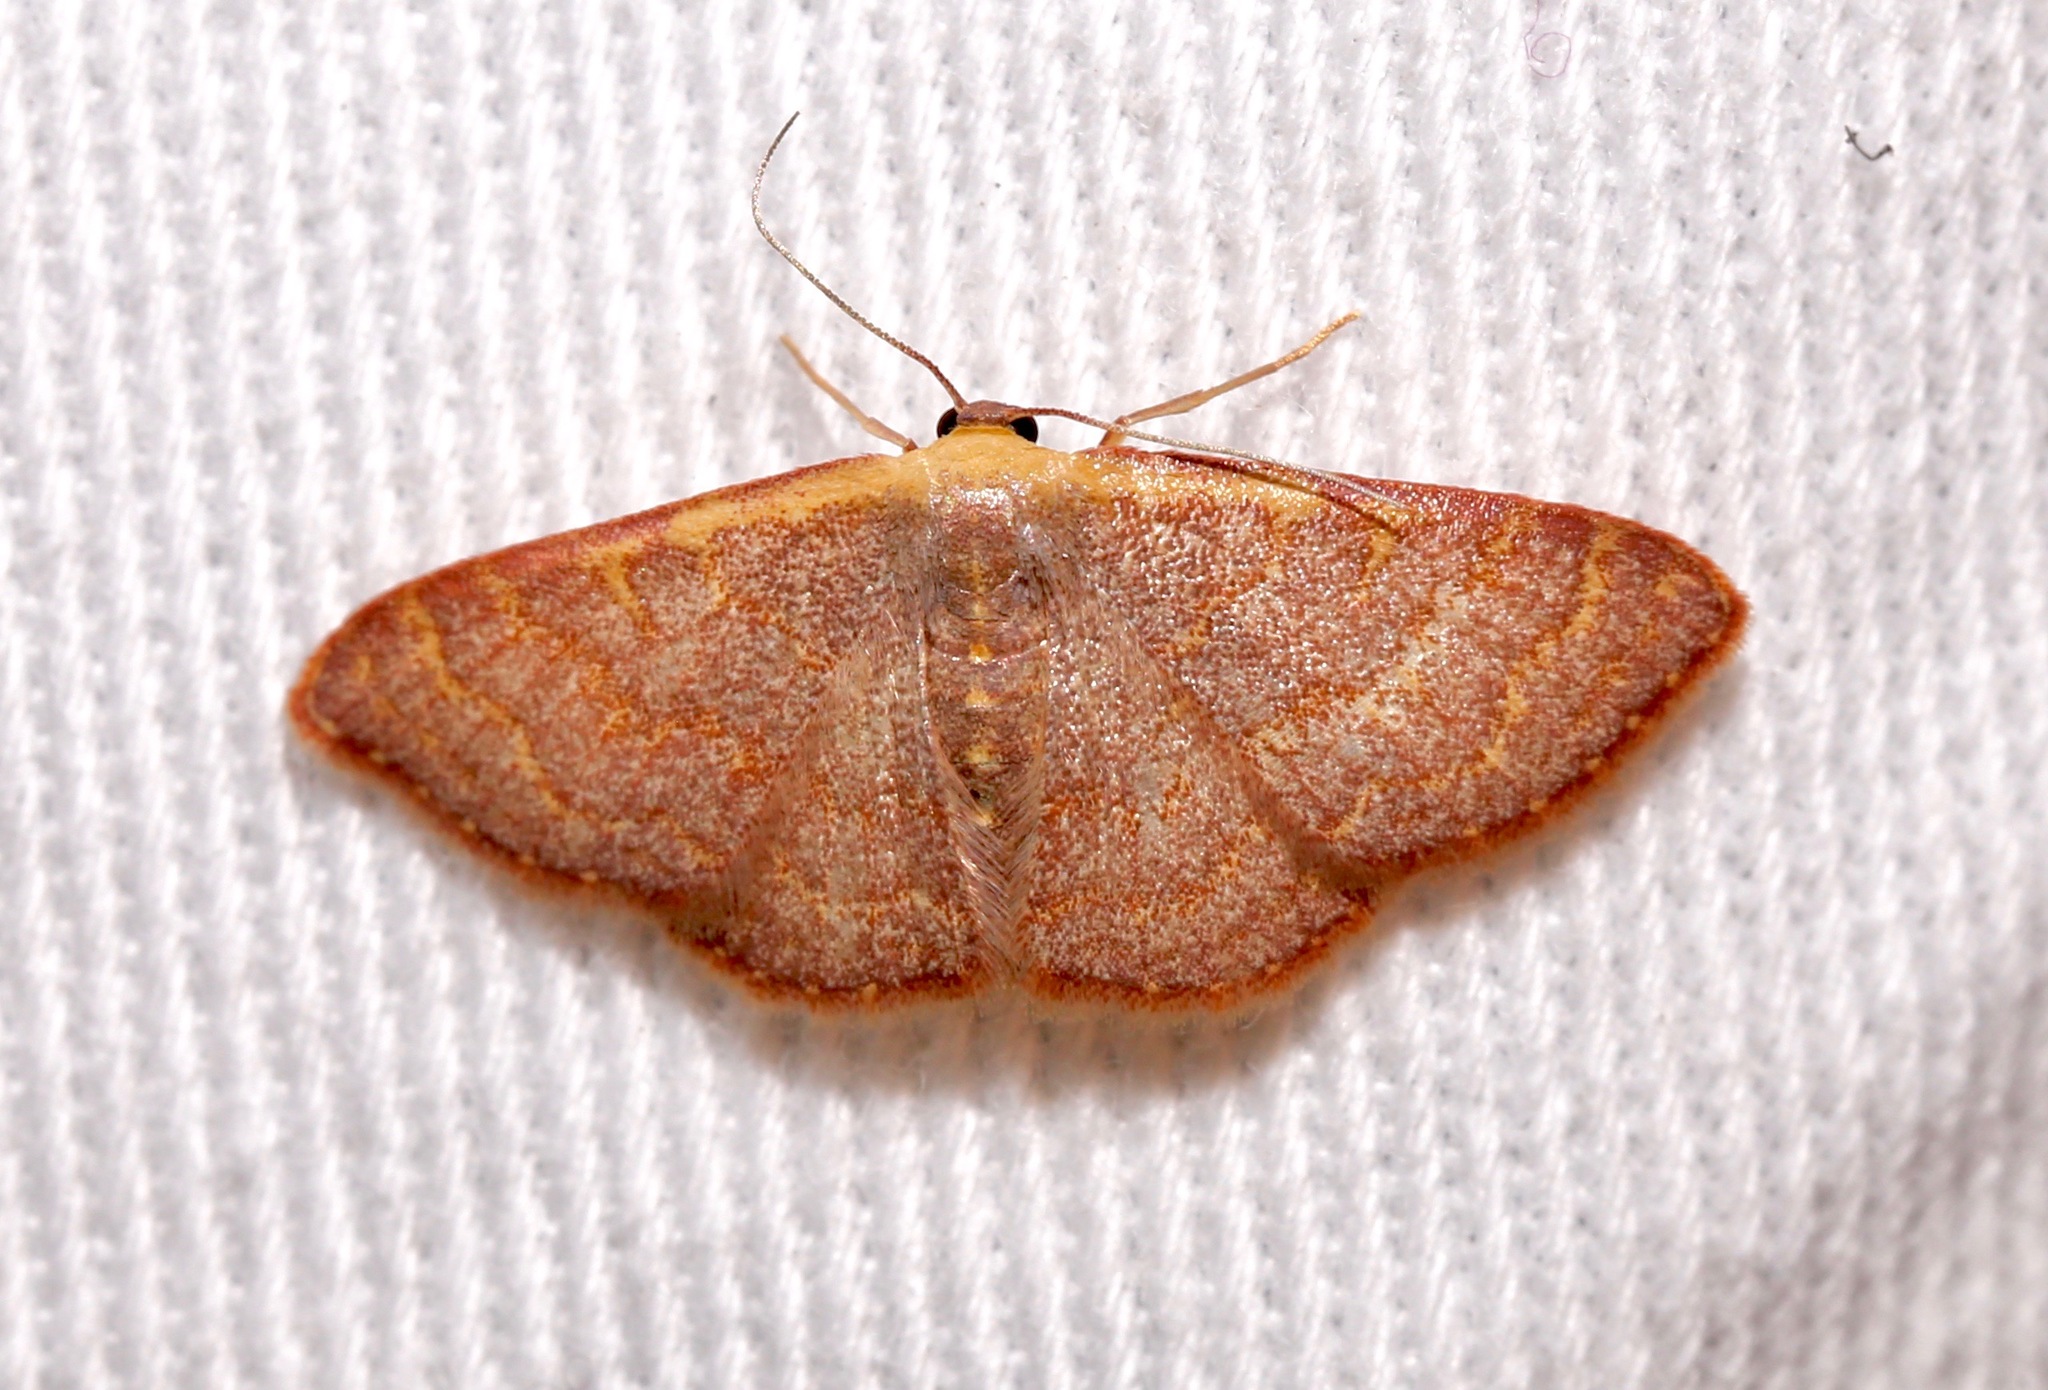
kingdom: Animalia
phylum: Arthropoda
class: Insecta
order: Lepidoptera
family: Geometridae
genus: Leptostales
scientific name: Leptostales pannaria
